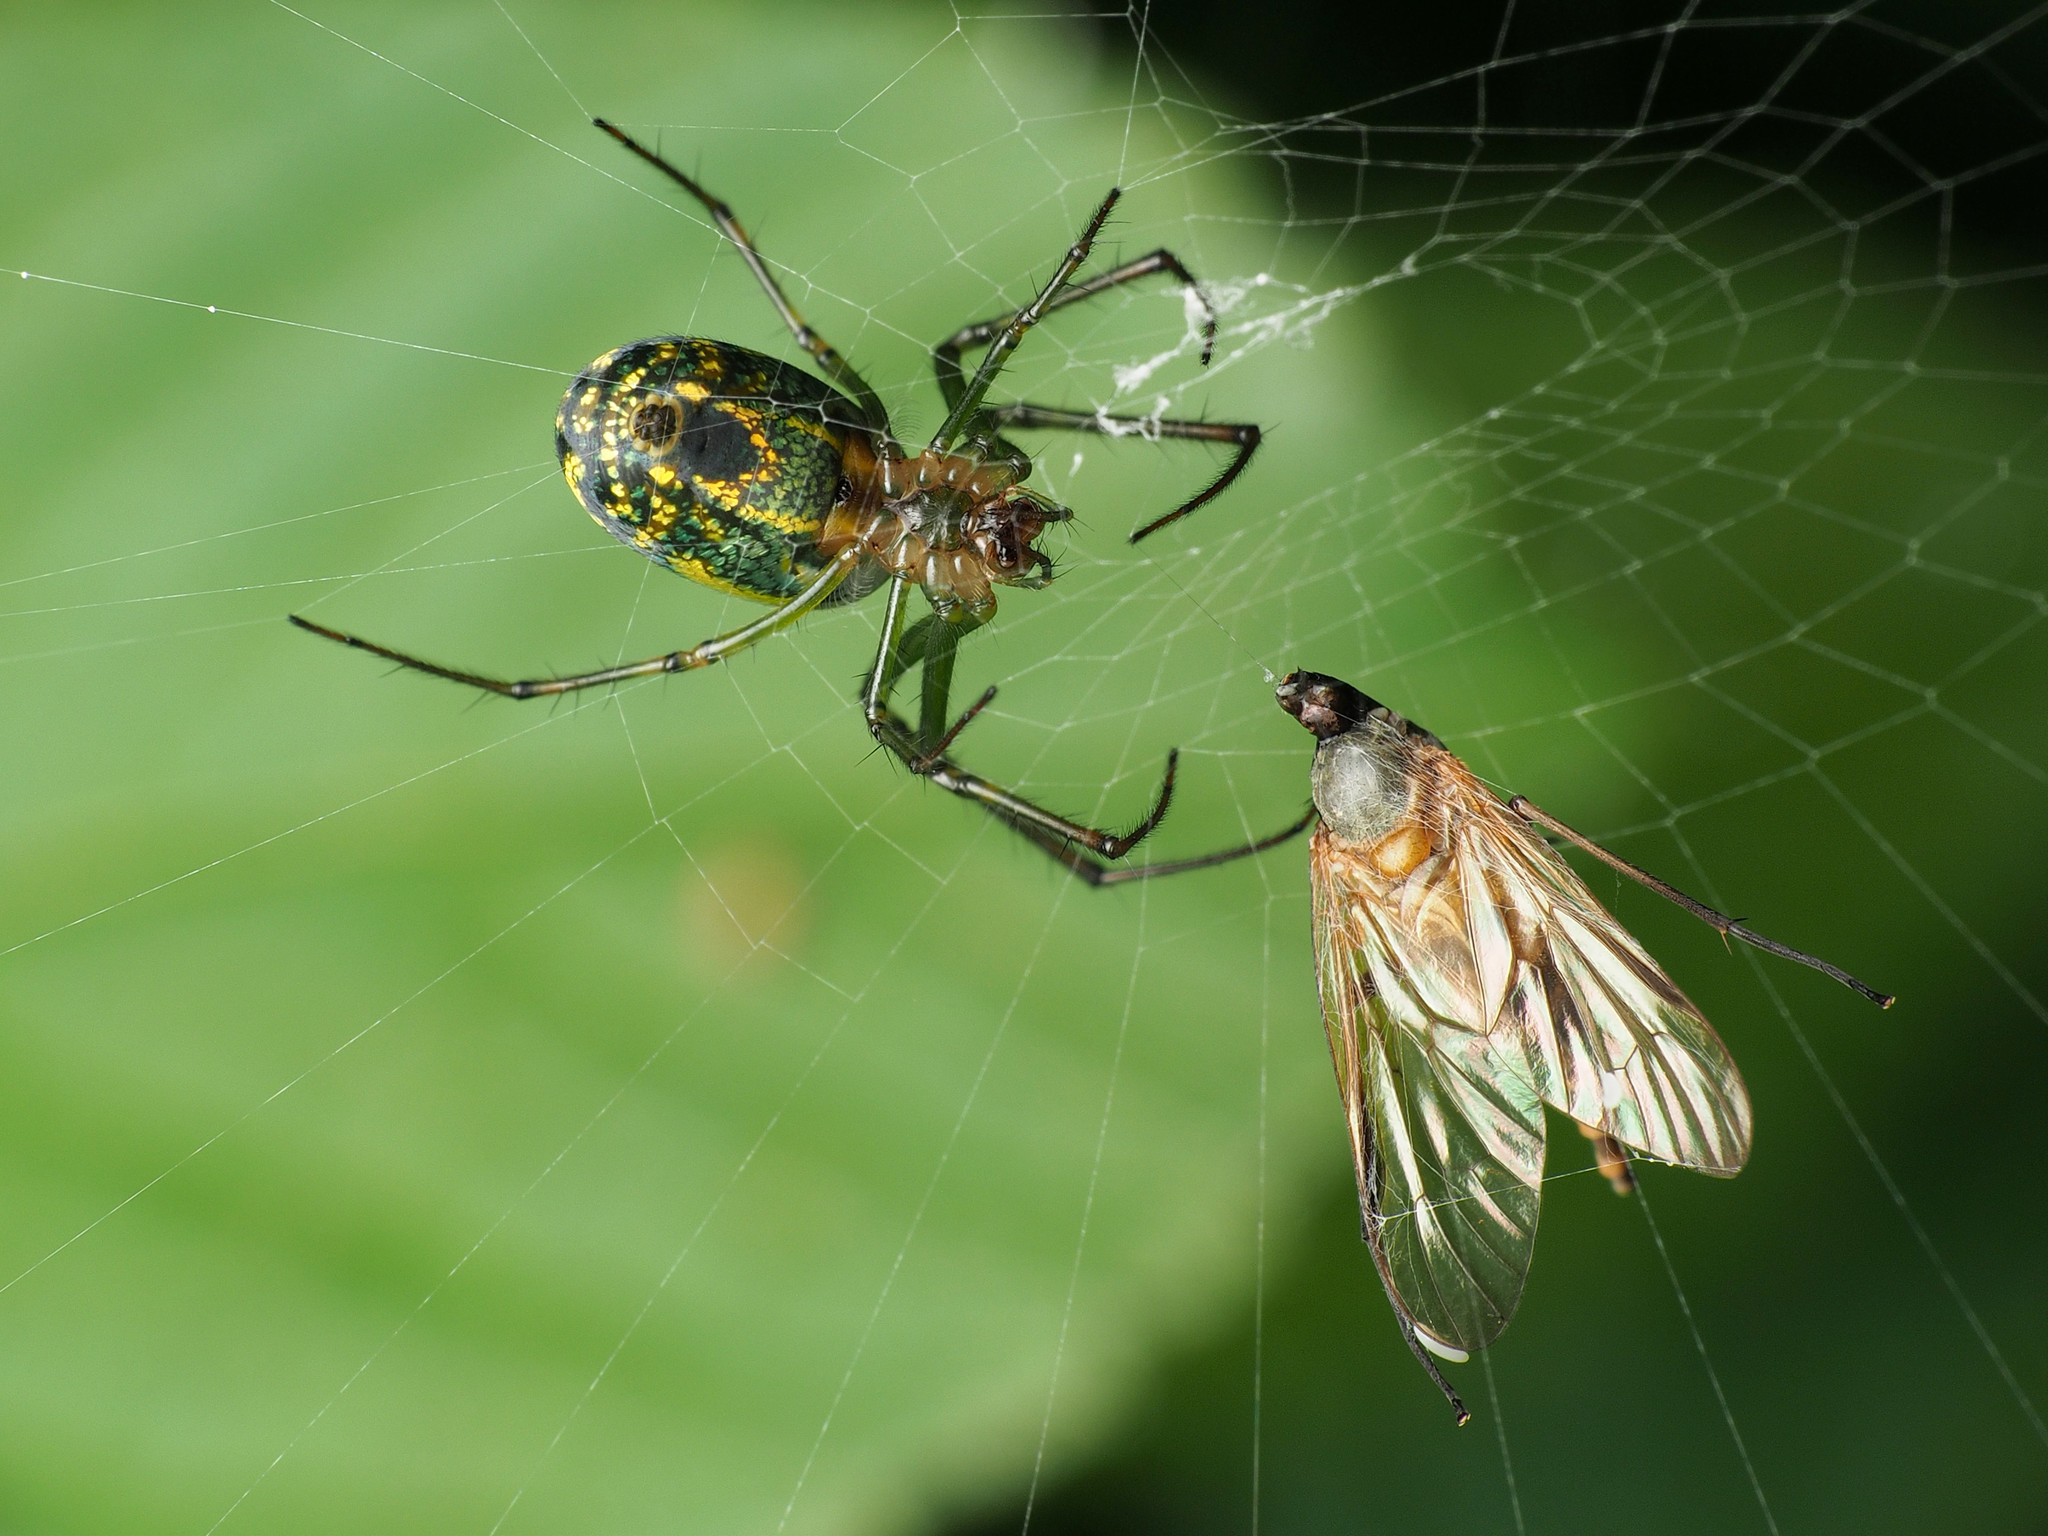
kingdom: Animalia
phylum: Arthropoda
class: Arachnida
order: Araneae
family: Tetragnathidae
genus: Leucauge
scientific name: Leucauge venusta
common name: Longjawed orb weavers
